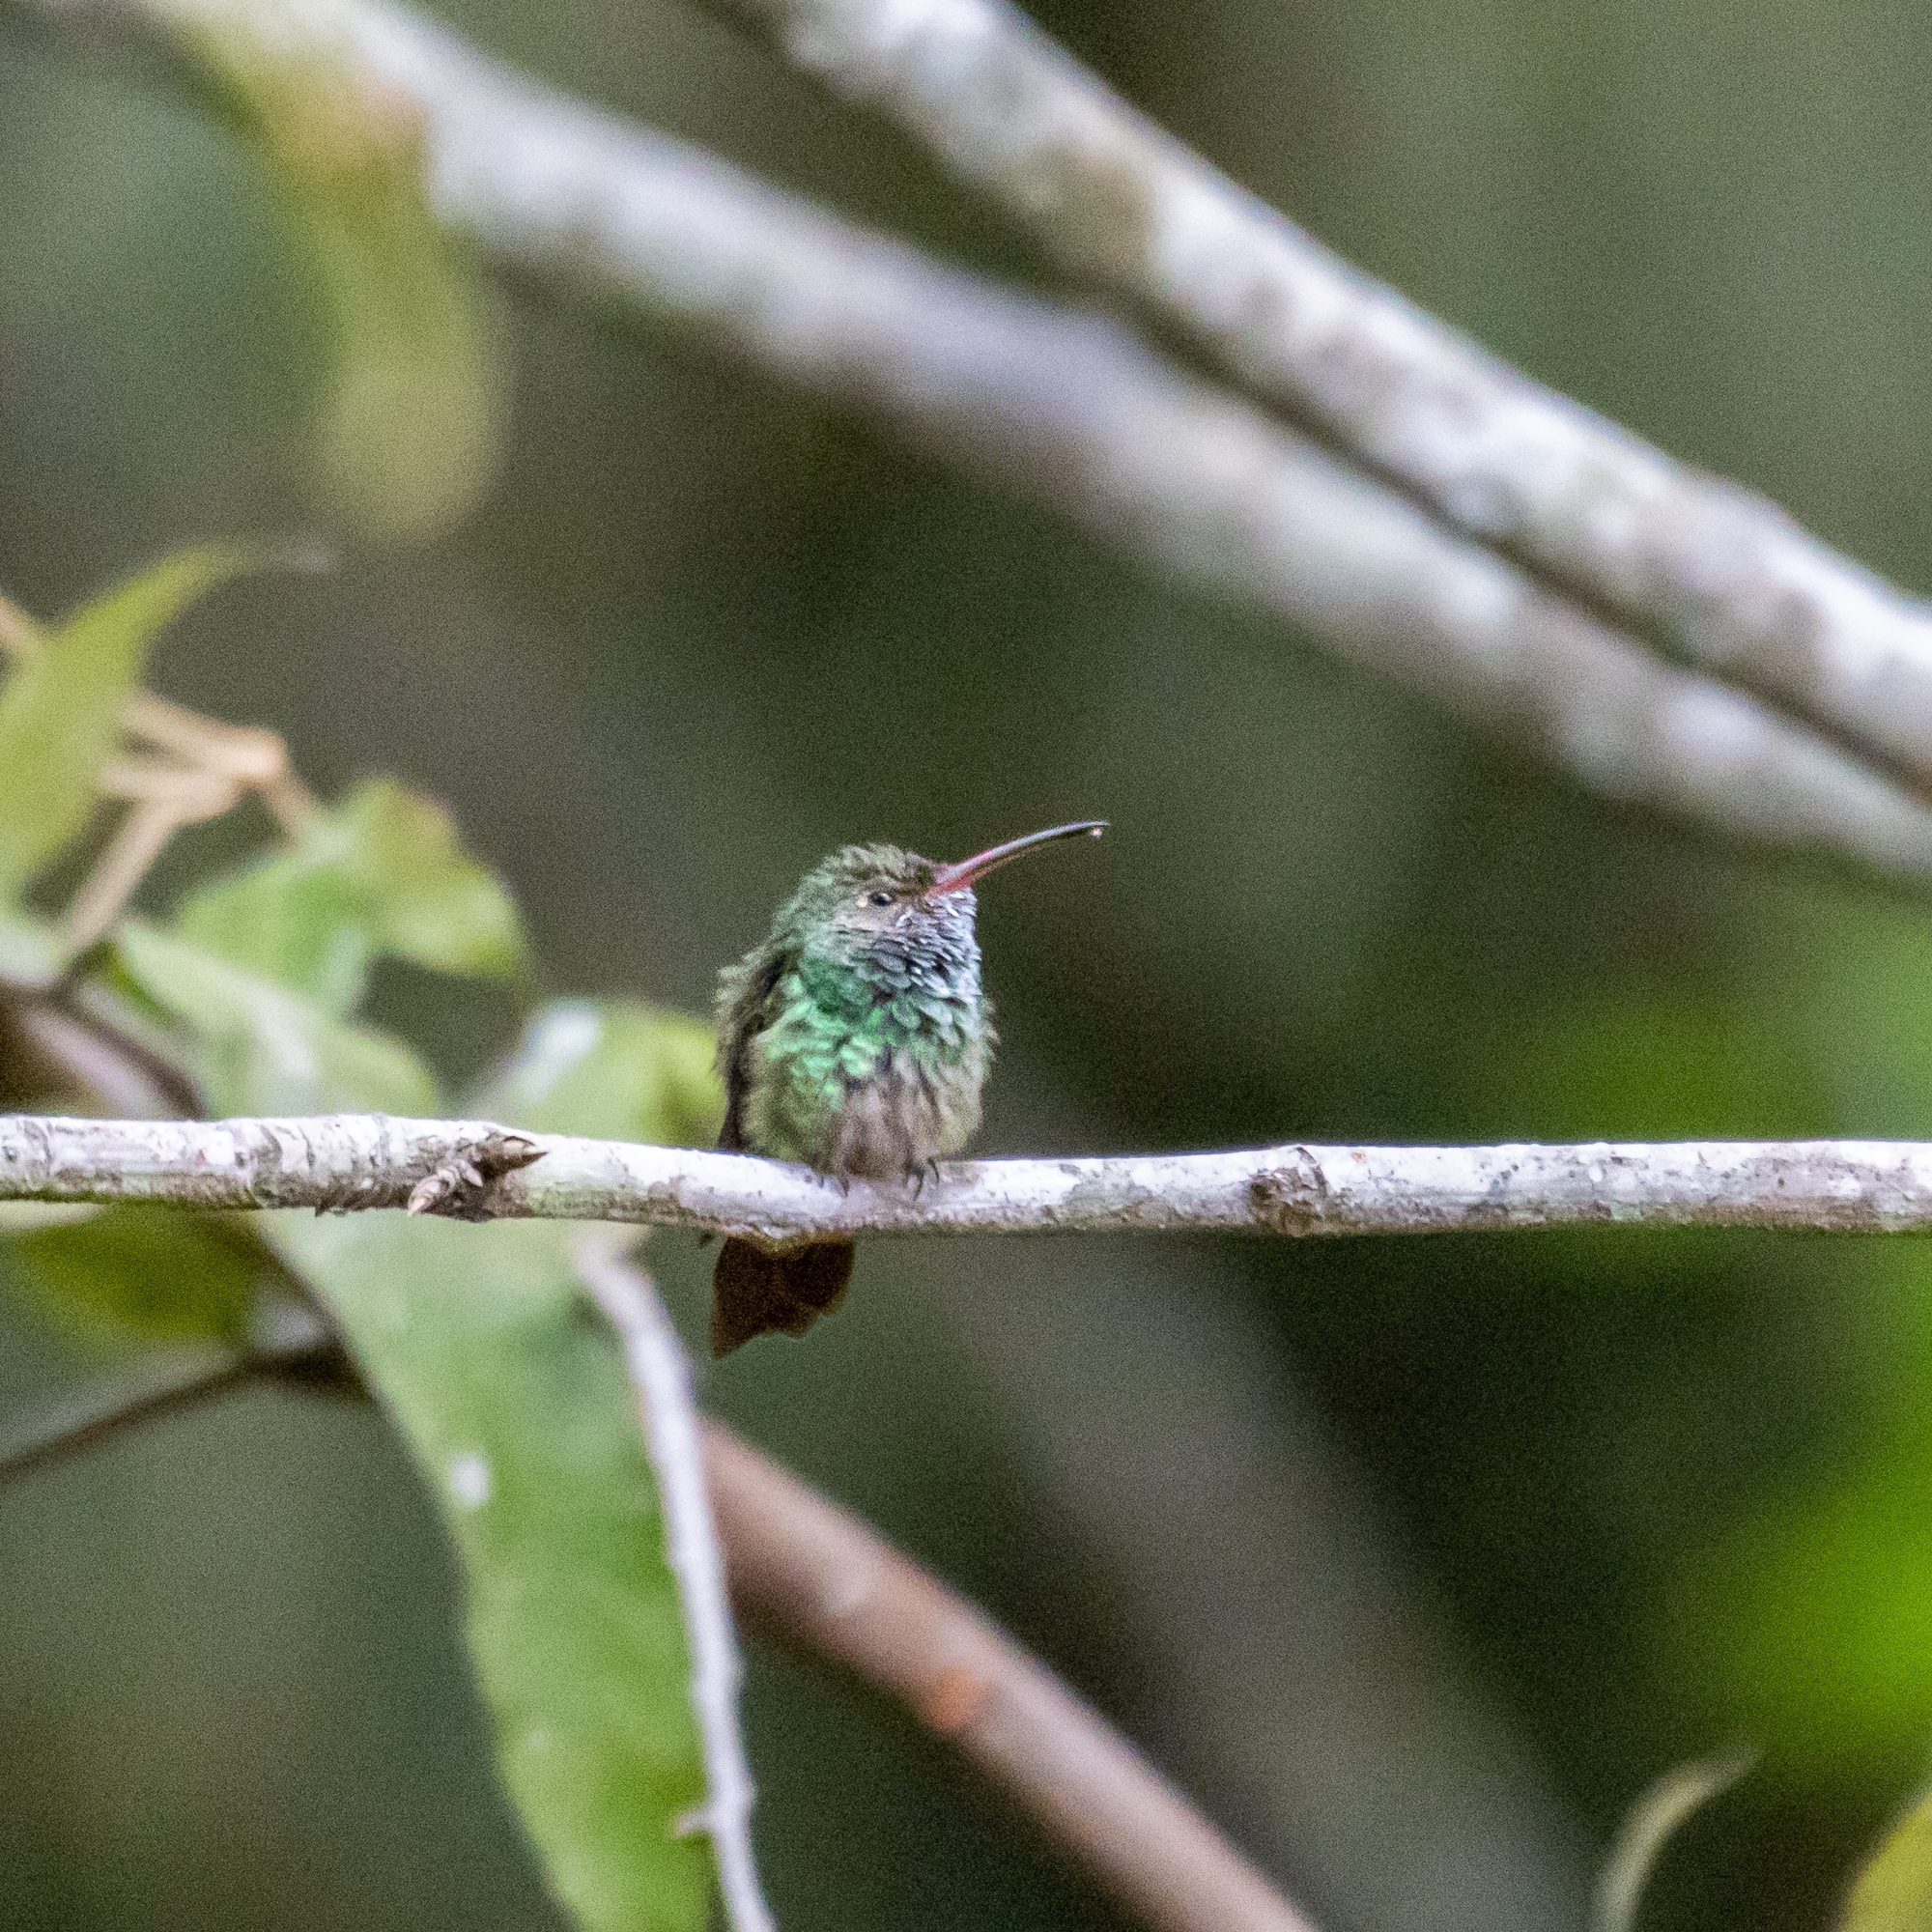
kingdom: Animalia
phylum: Chordata
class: Aves
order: Apodiformes
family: Trochilidae
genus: Amazilia
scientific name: Amazilia tzacatl
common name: Rufous-tailed hummingbird
